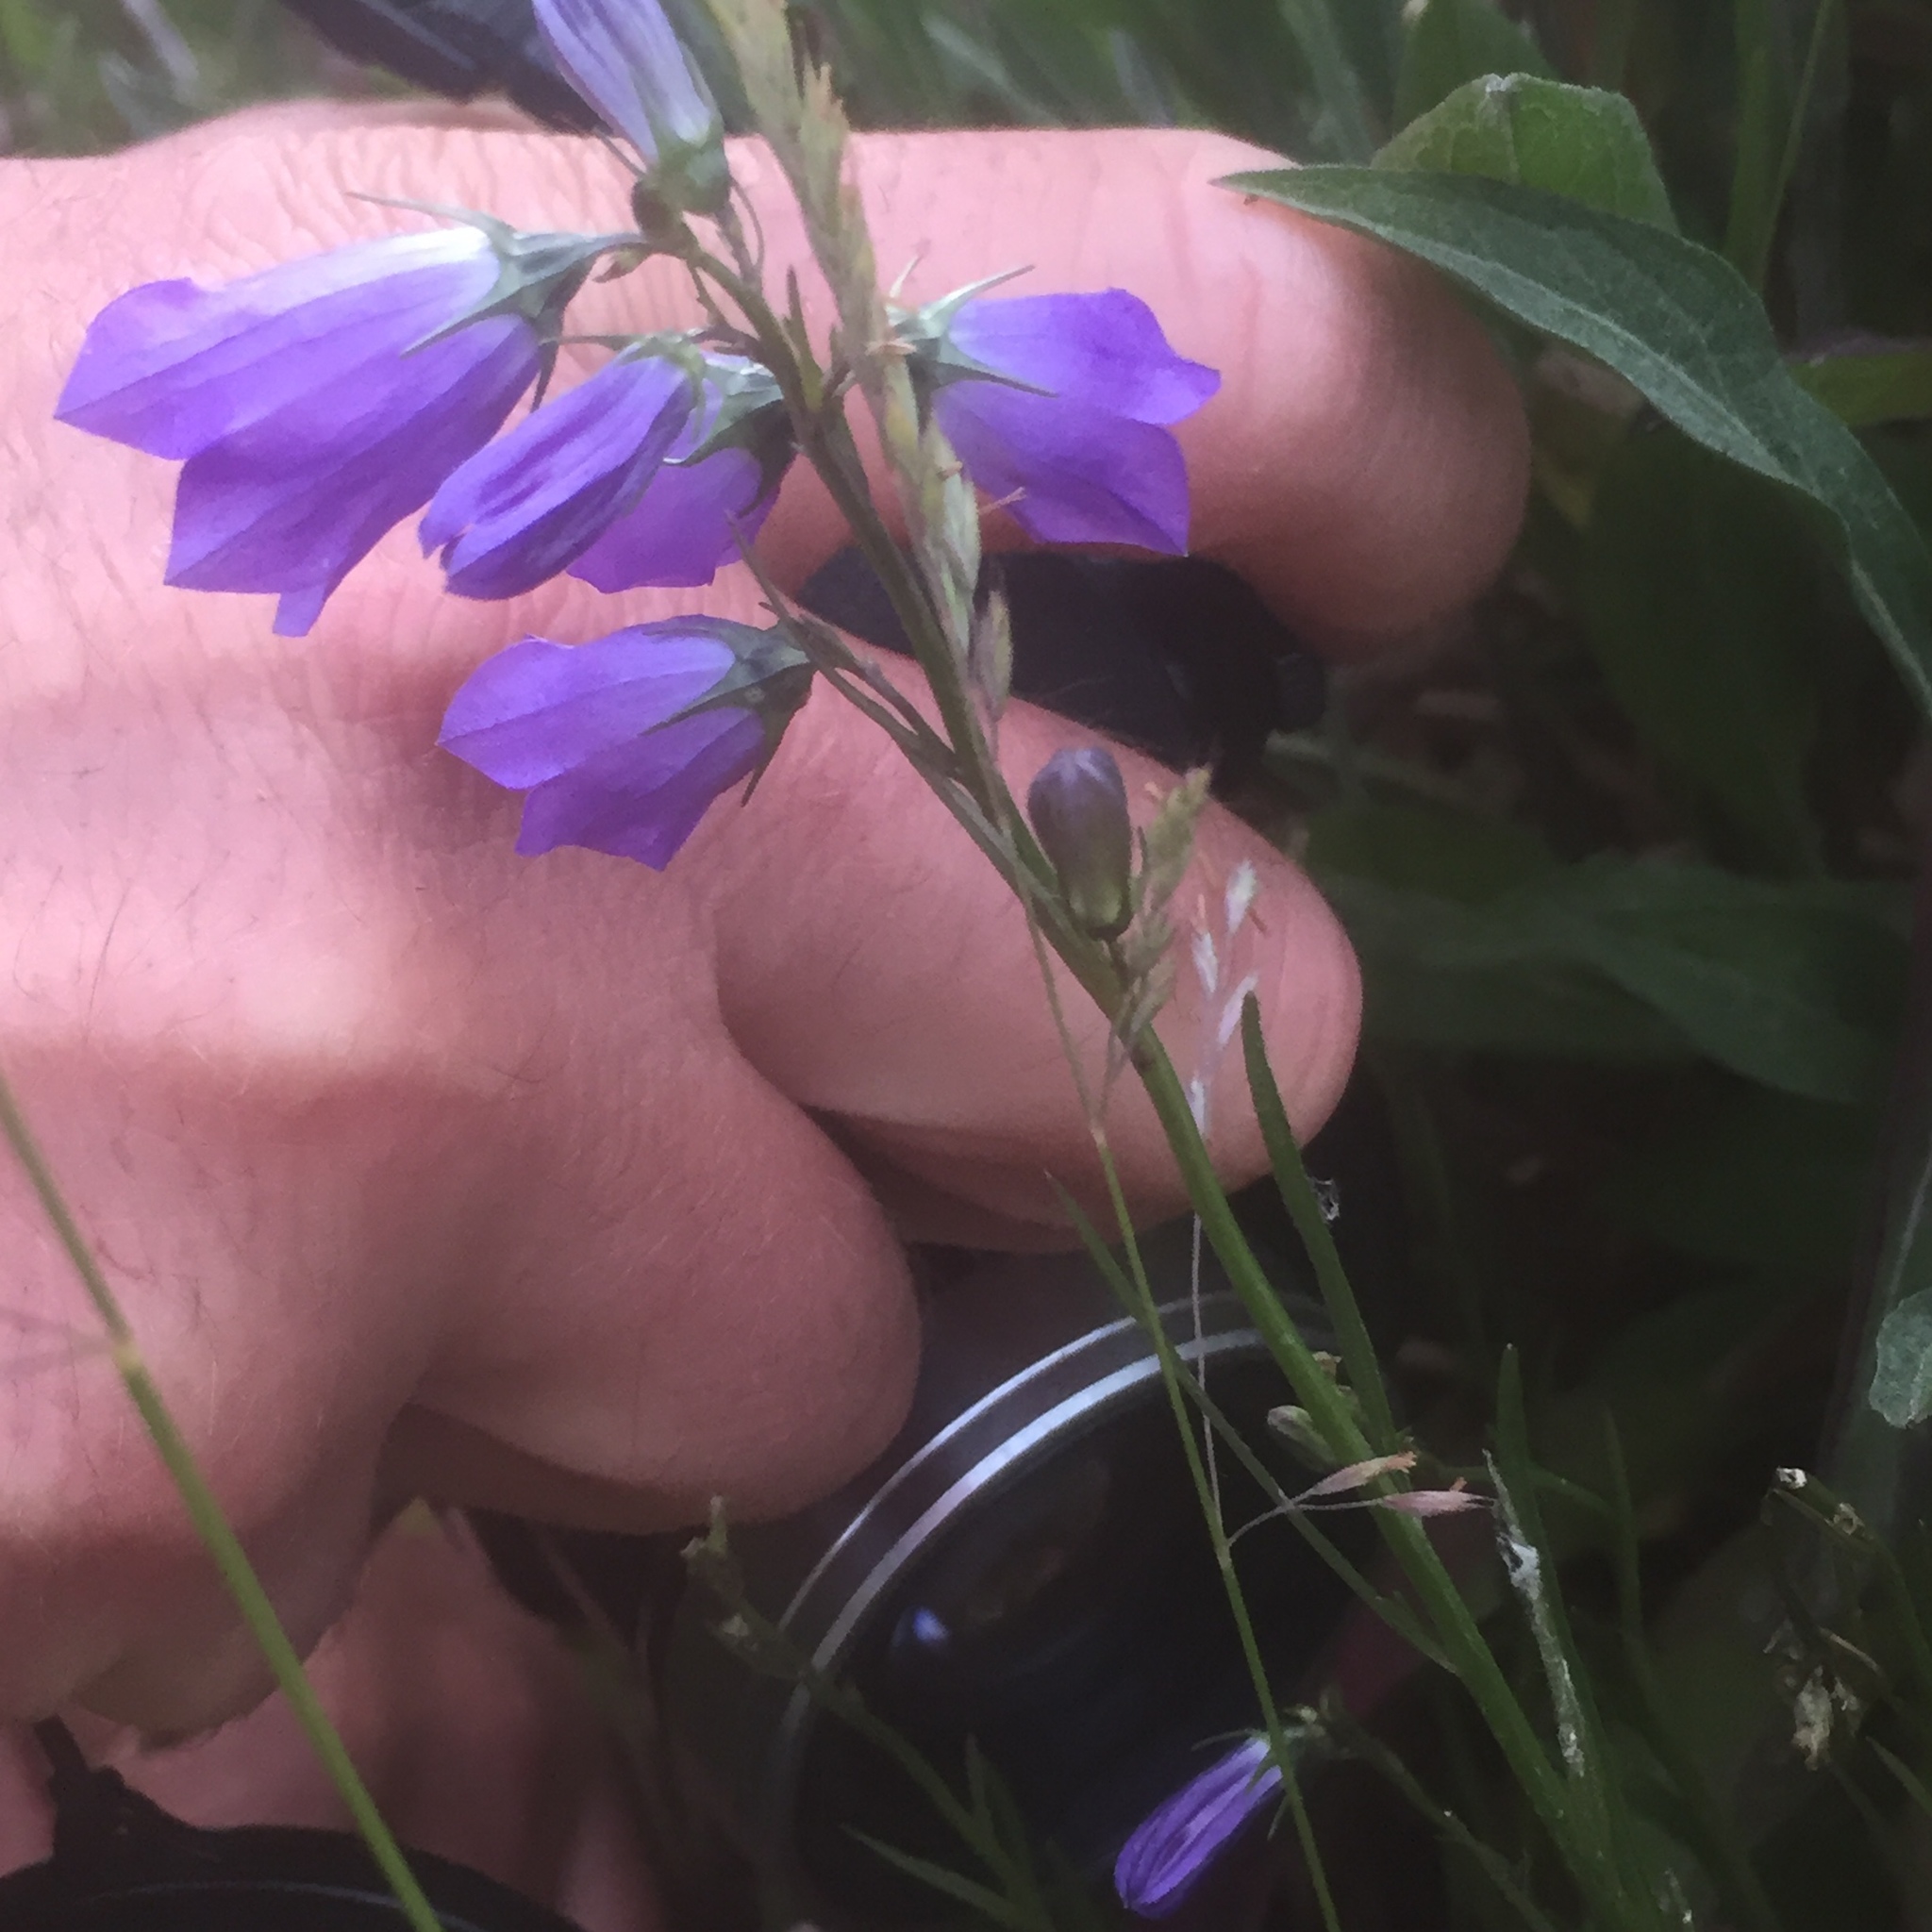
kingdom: Plantae
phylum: Tracheophyta
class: Magnoliopsida
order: Asterales
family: Campanulaceae
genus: Campanula
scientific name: Campanula rotundifolia
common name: Harebell
